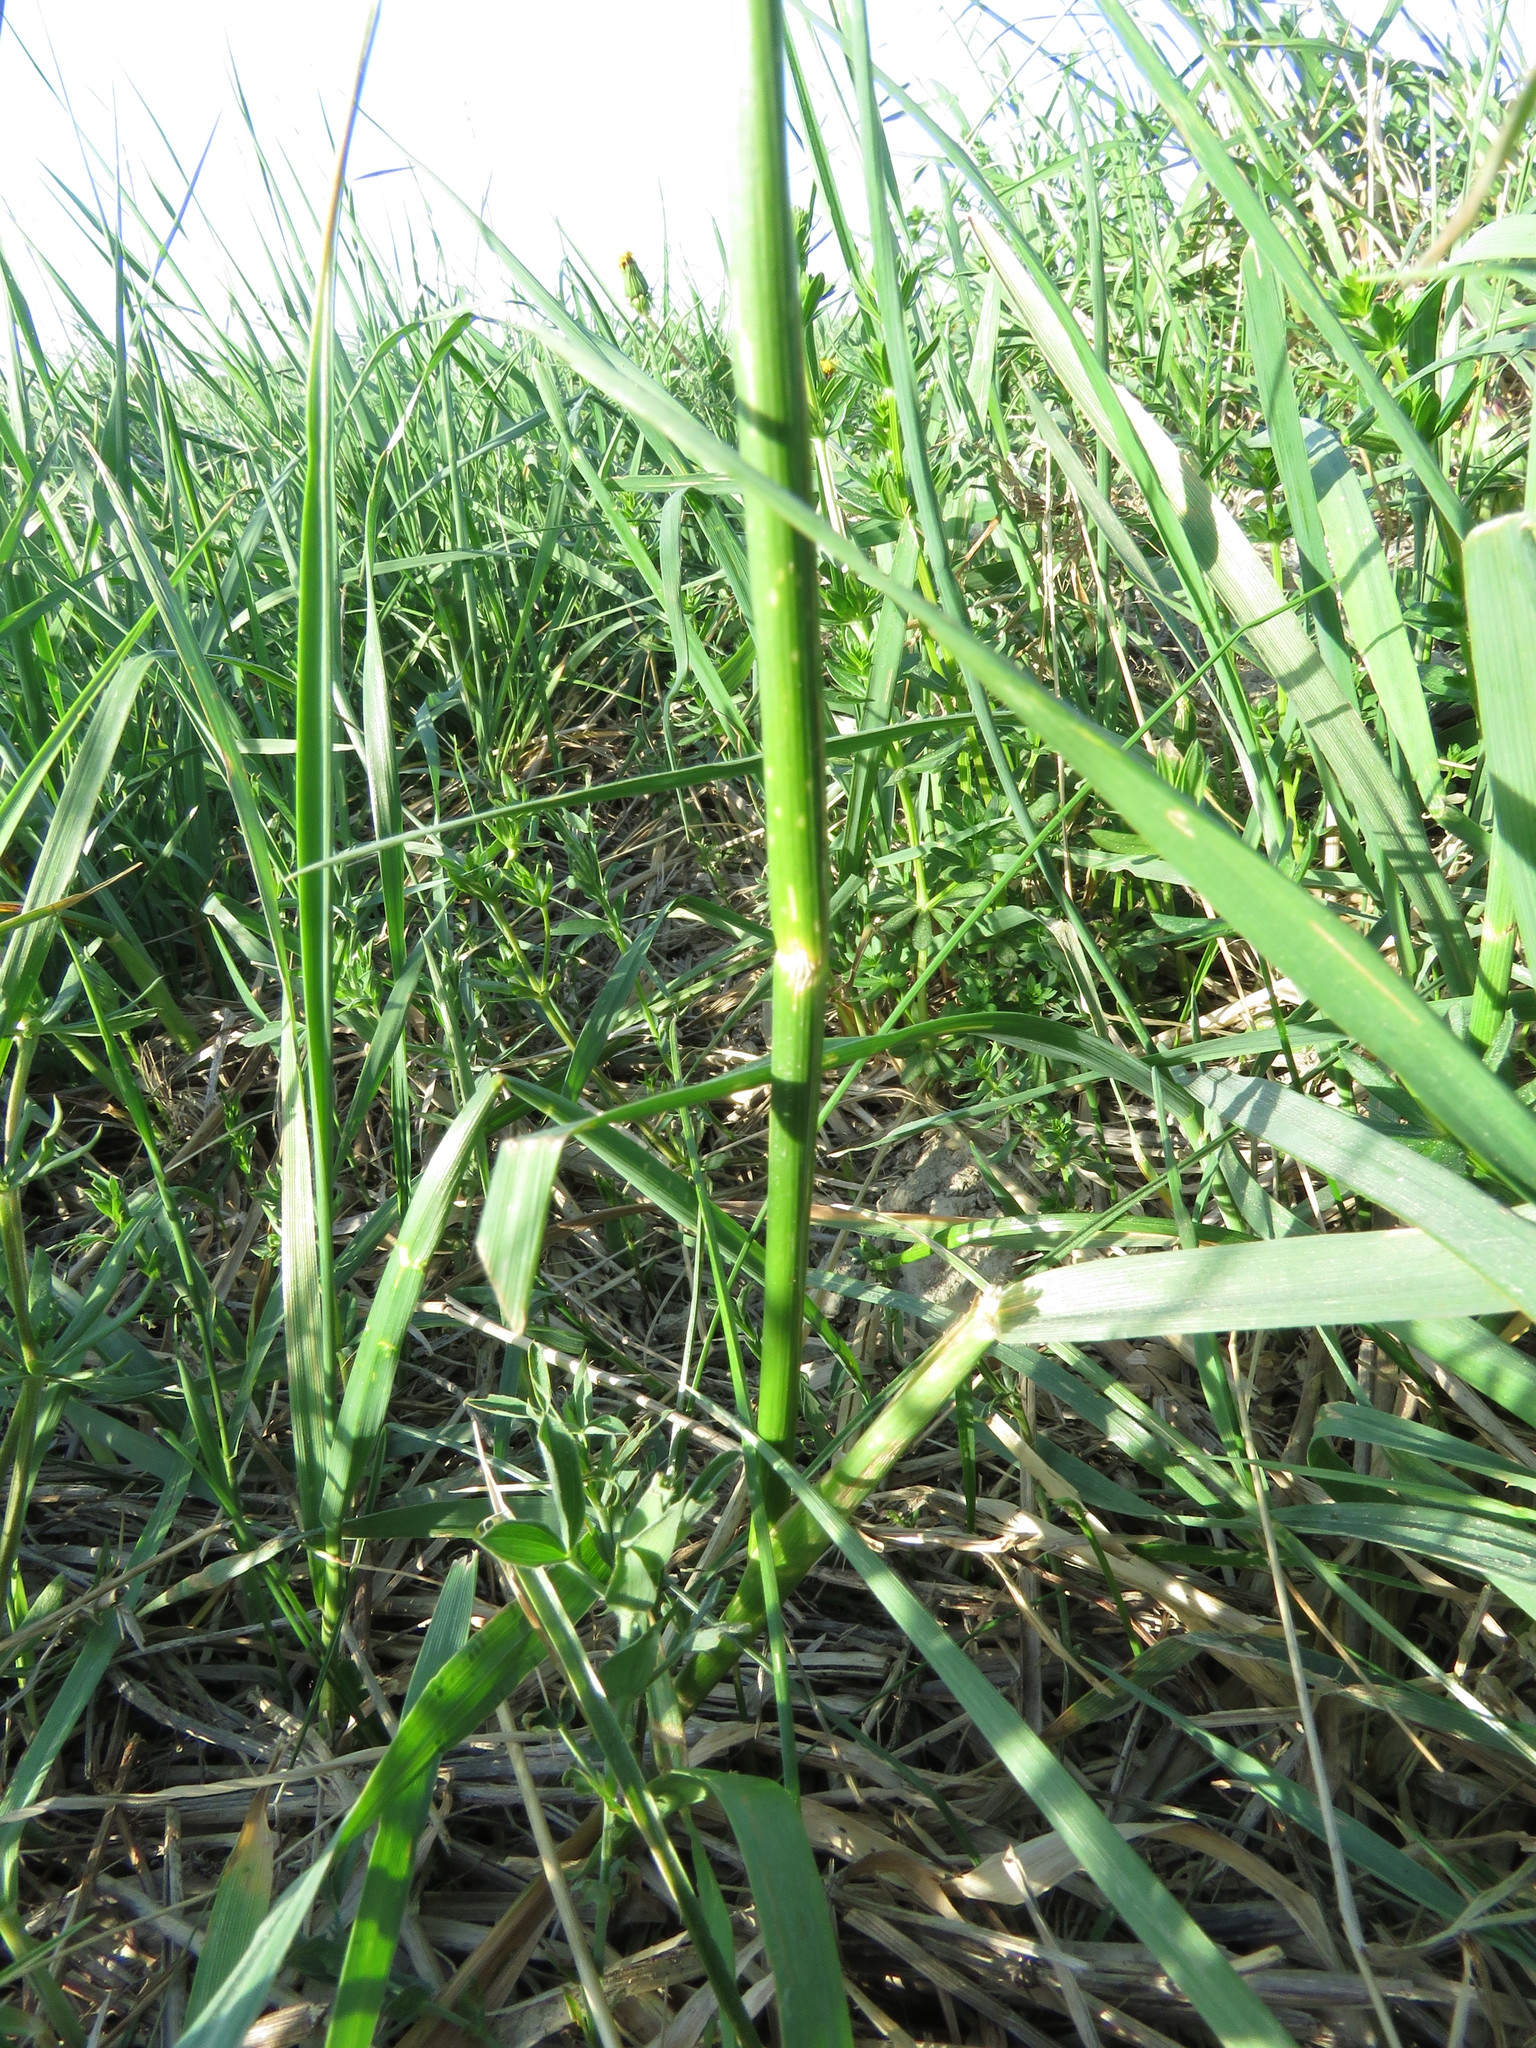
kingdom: Plantae
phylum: Tracheophyta
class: Liliopsida
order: Poales
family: Poaceae
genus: Alopecurus
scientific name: Alopecurus pratensis
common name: Meadow foxtail
